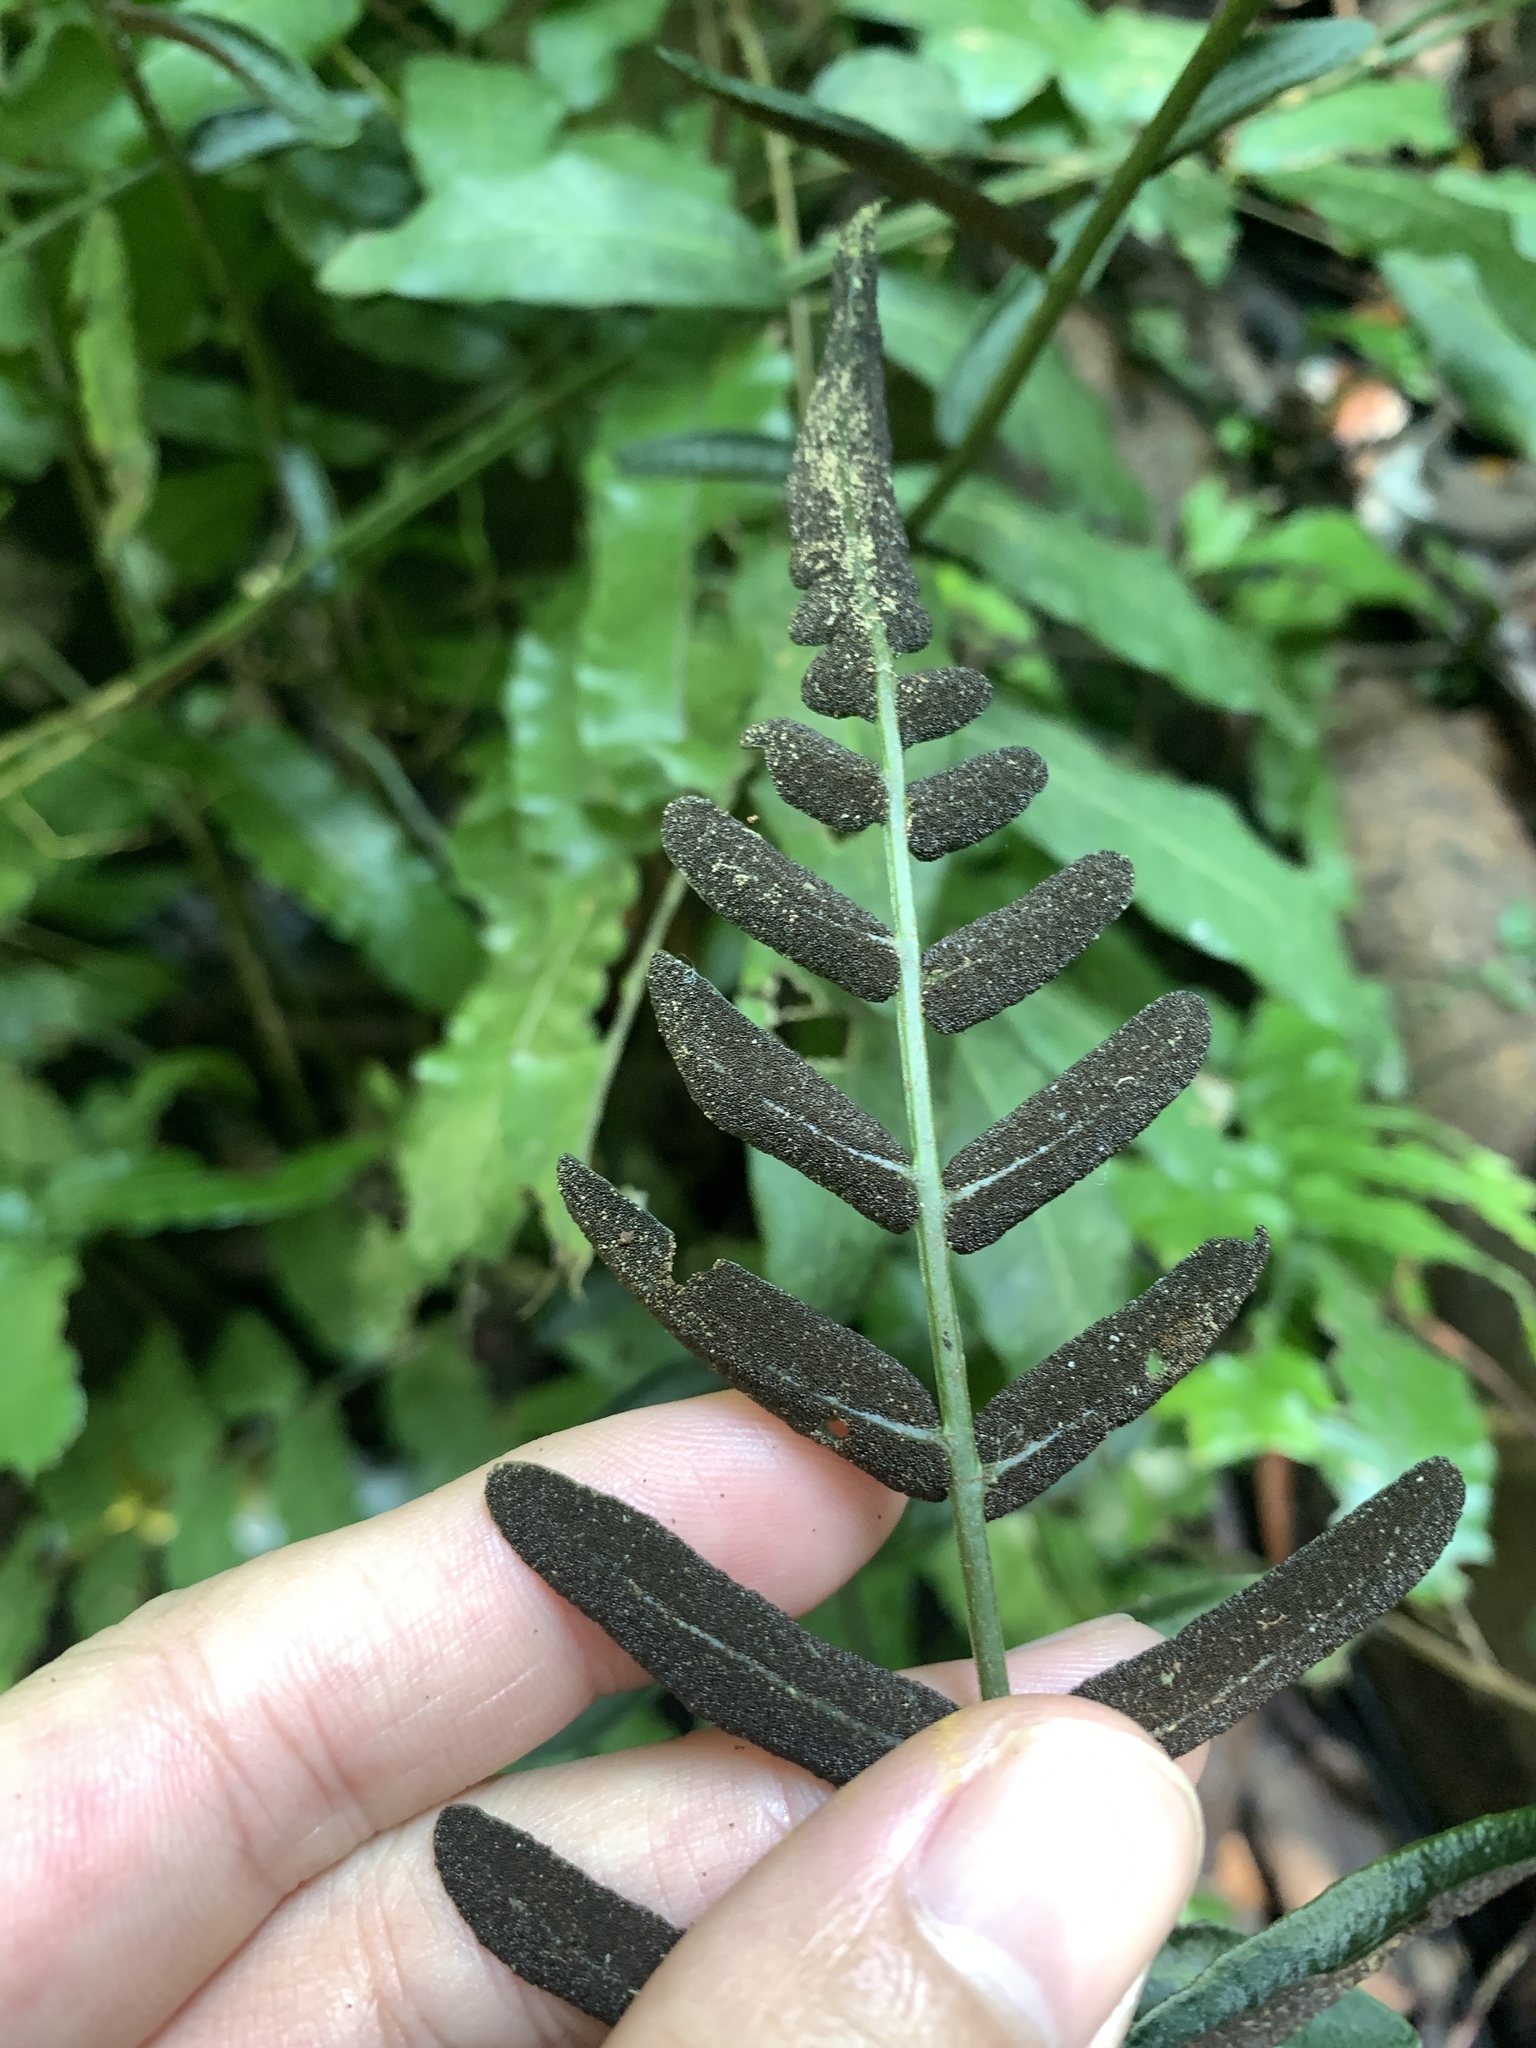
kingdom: Plantae
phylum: Tracheophyta
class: Polypodiopsida
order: Polypodiales
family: Dryopteridaceae
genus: Bolbitis
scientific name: Bolbitis subcordata
